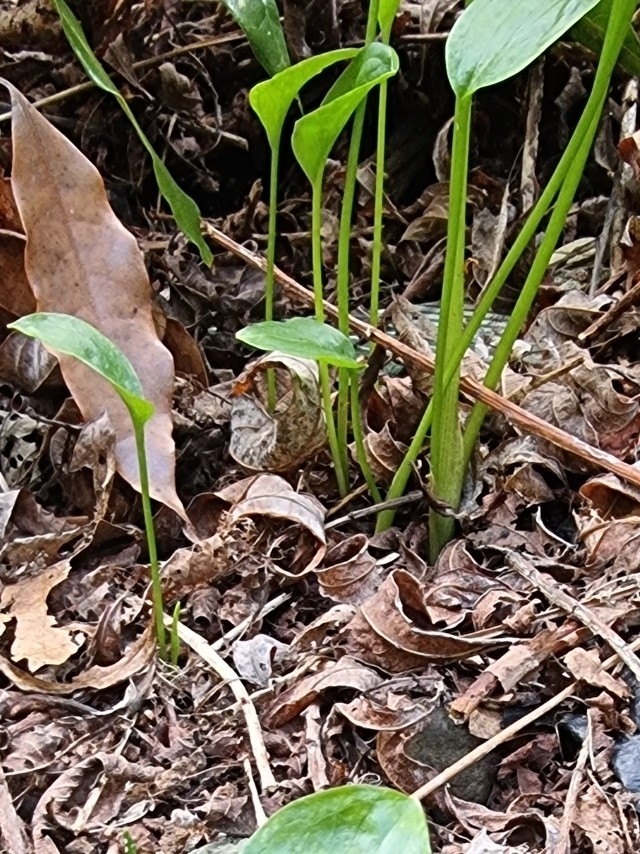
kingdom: Plantae
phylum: Tracheophyta
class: Liliopsida
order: Alismatales
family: Araceae
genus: Zantedeschia
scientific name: Zantedeschia aethiopica
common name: Altar-lily
